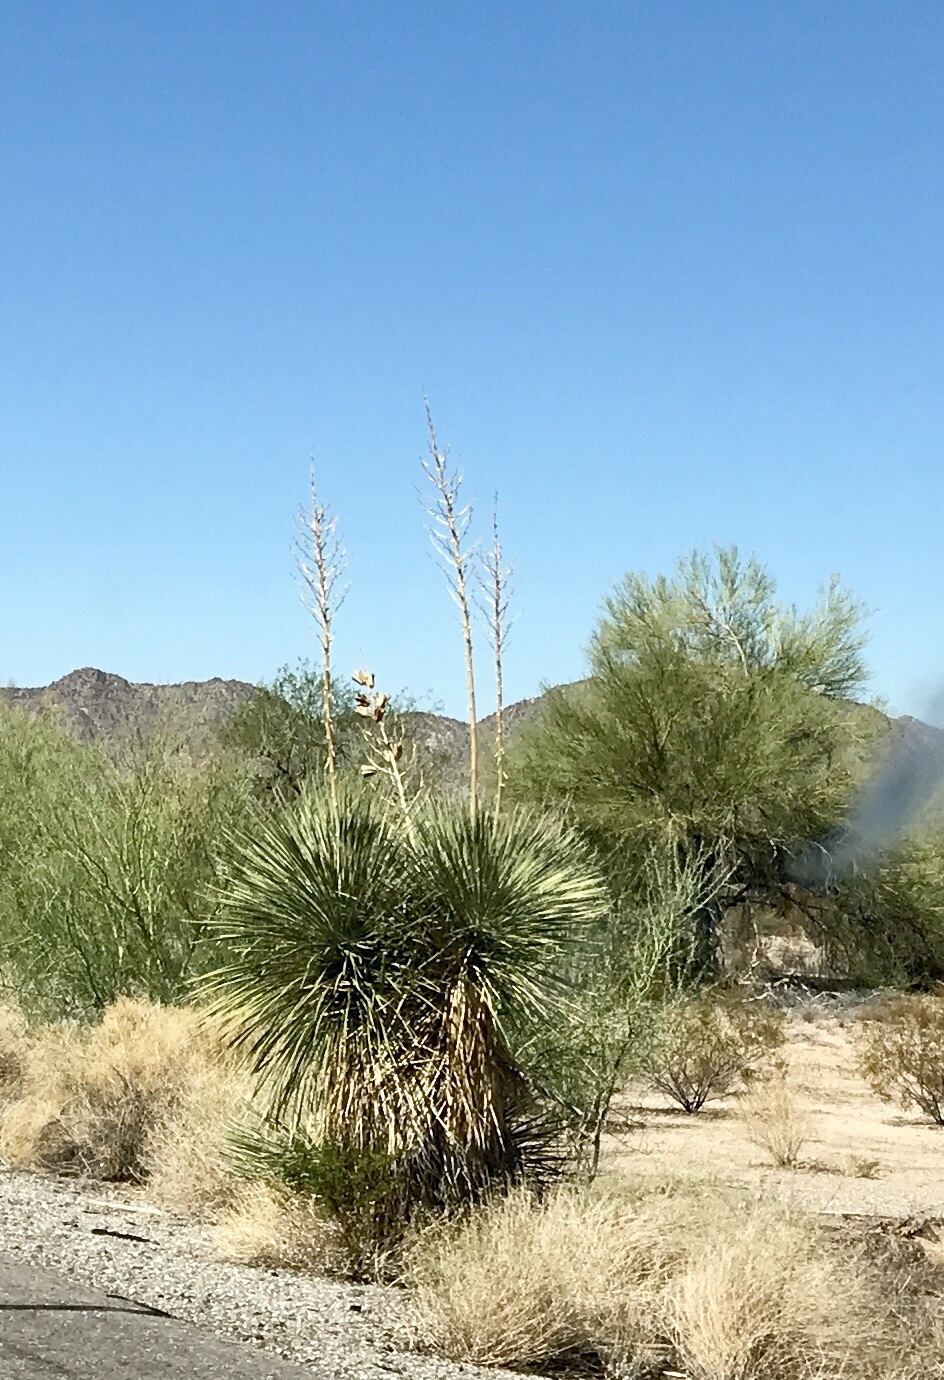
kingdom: Plantae
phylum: Tracheophyta
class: Liliopsida
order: Asparagales
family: Asparagaceae
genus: Yucca
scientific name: Yucca elata
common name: Palmella
